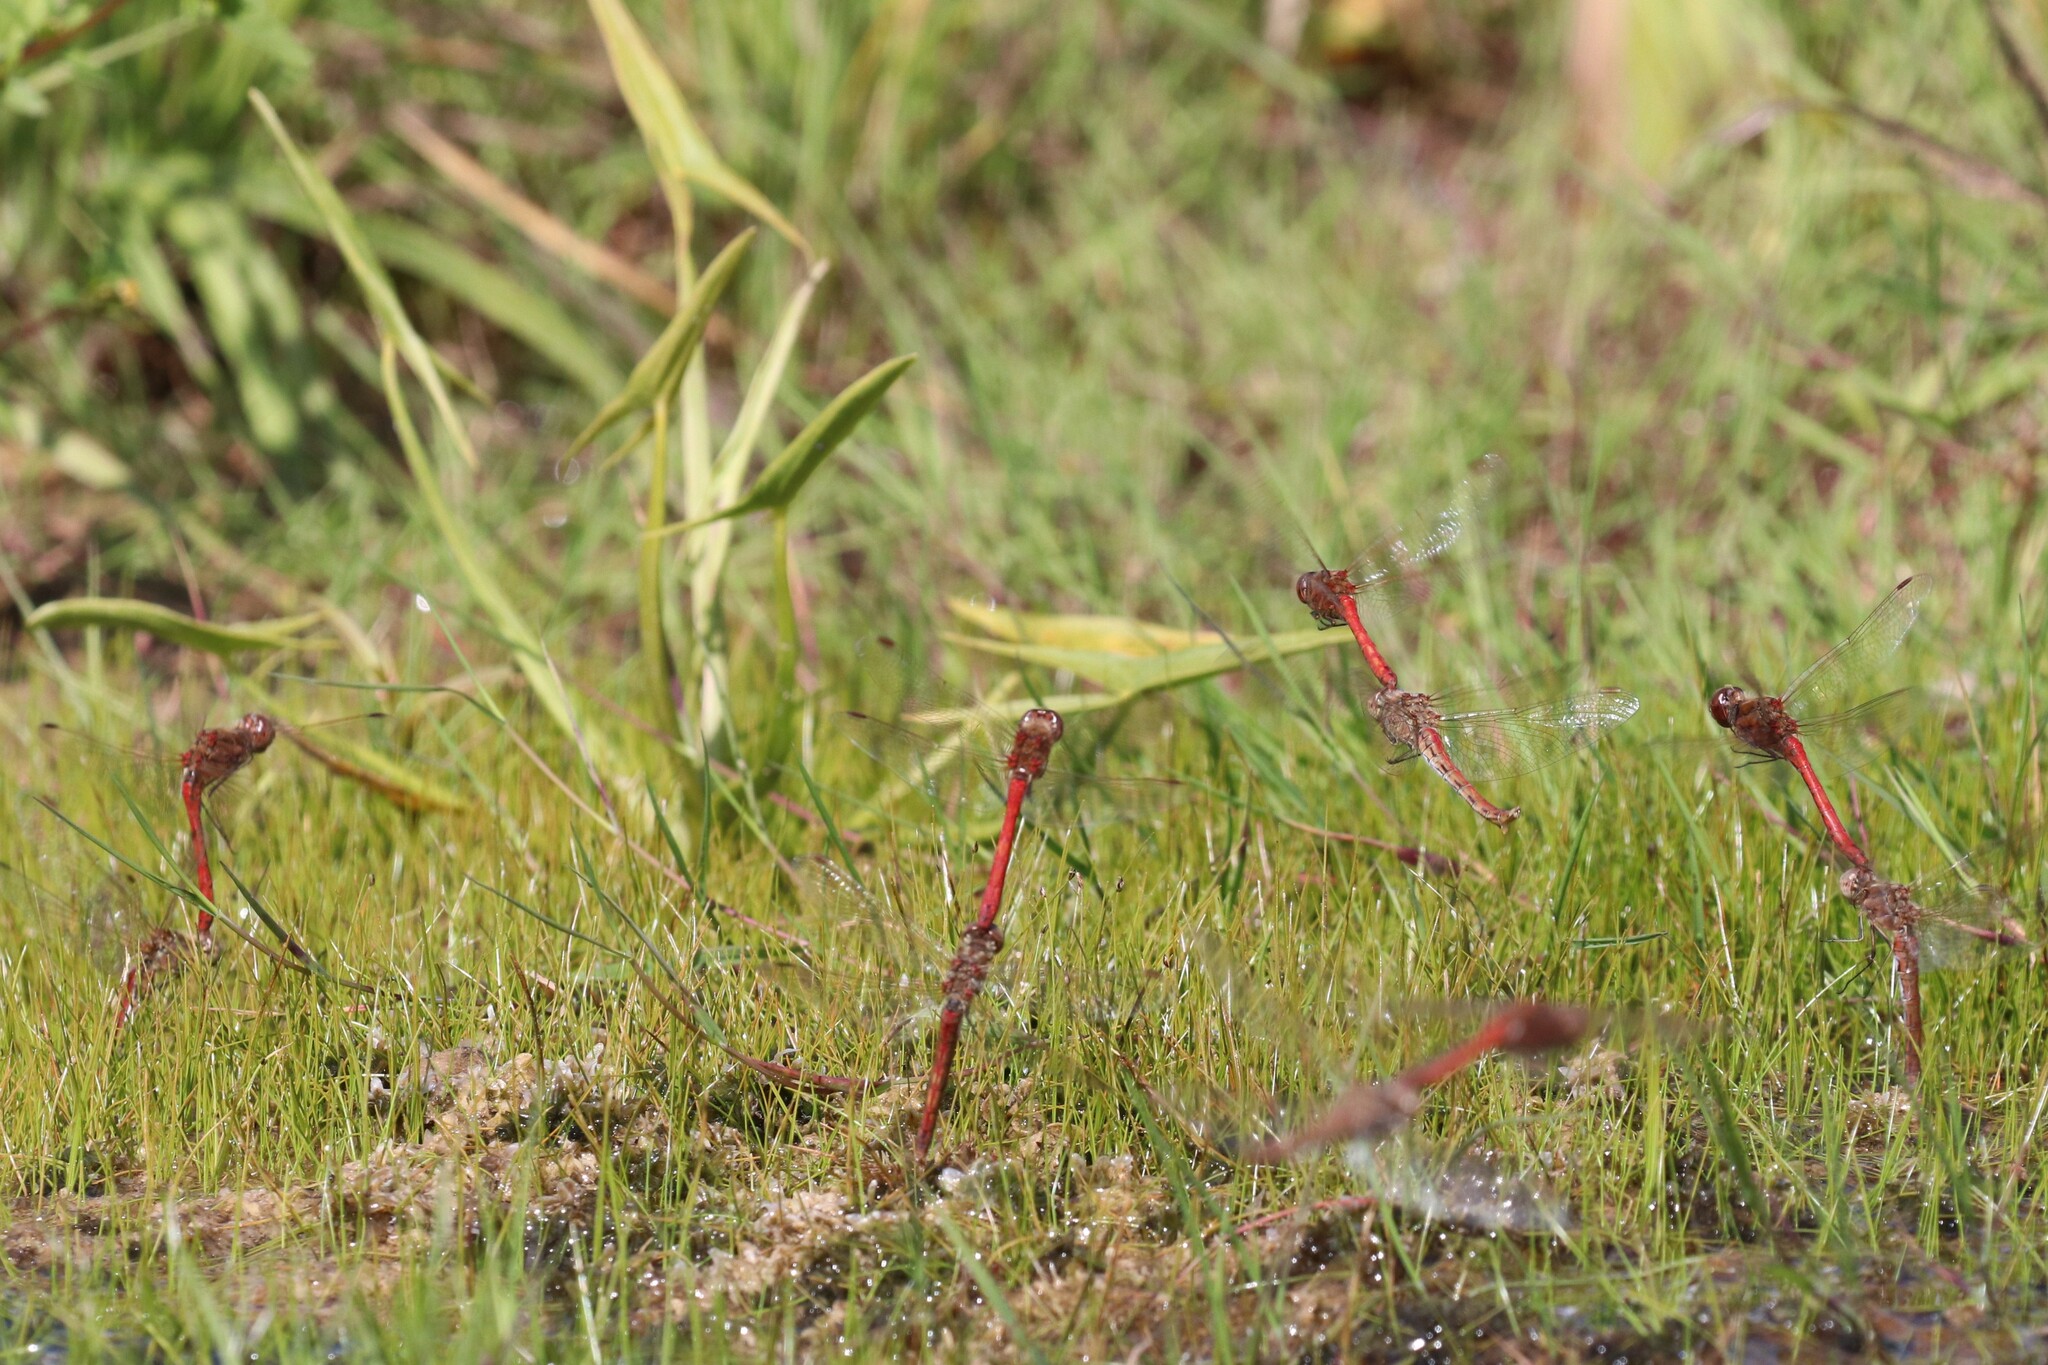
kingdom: Animalia
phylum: Arthropoda
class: Insecta
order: Odonata
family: Libellulidae
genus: Sympetrum
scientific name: Sympetrum vulgatum
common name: Vagrant darter
